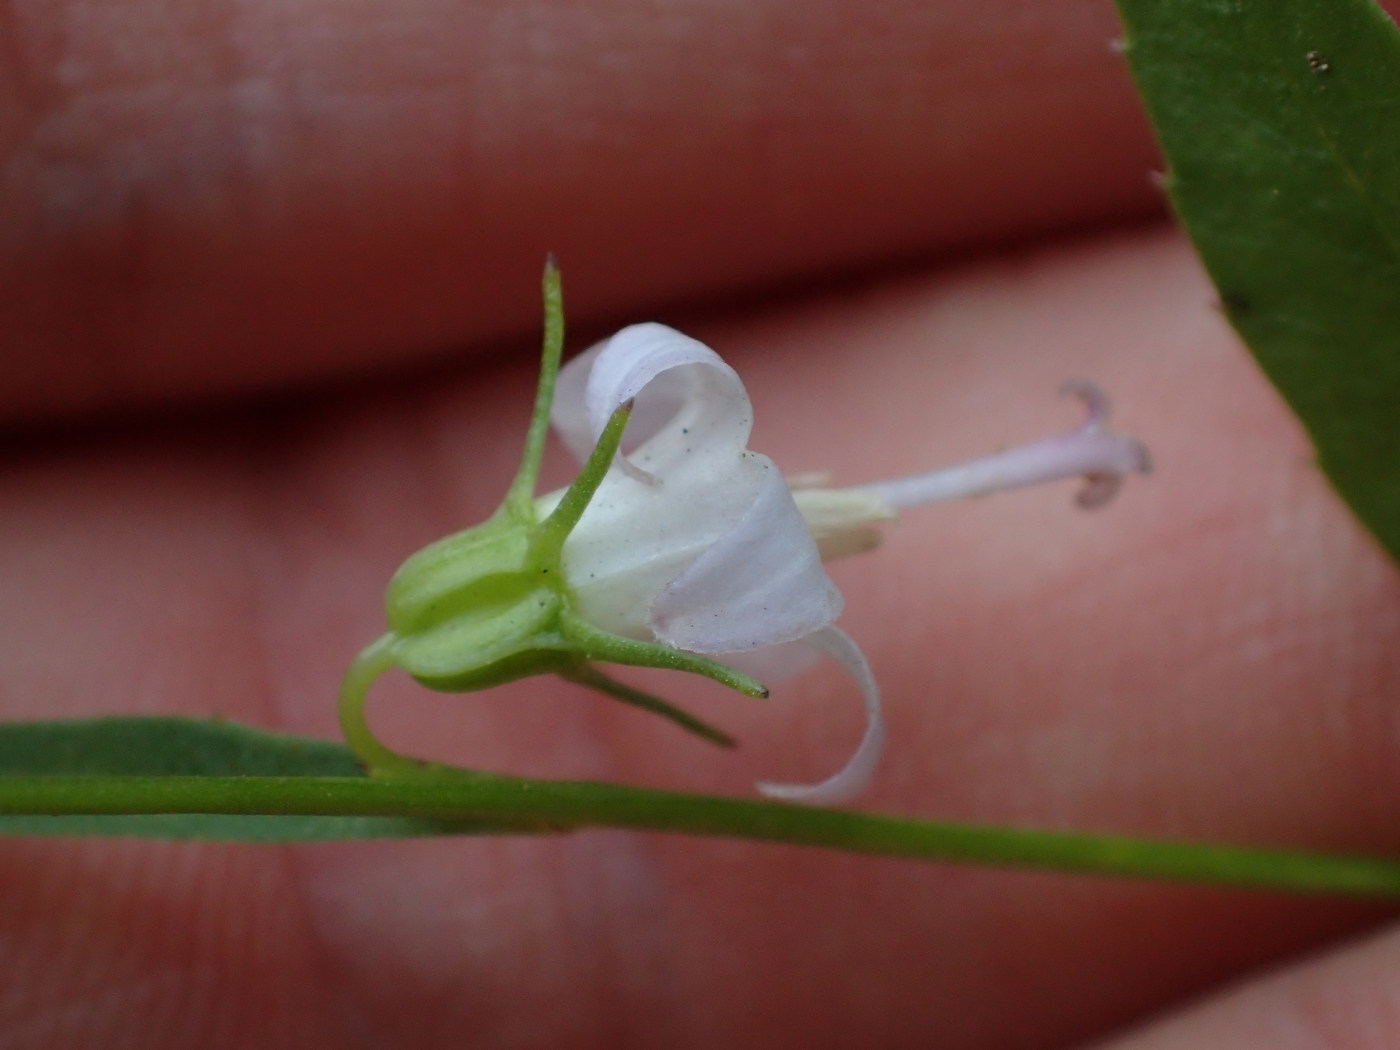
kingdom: Plantae
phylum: Tracheophyta
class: Magnoliopsida
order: Asterales
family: Campanulaceae
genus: Campanula
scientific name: Campanula scouleri
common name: Scouler's harebell
